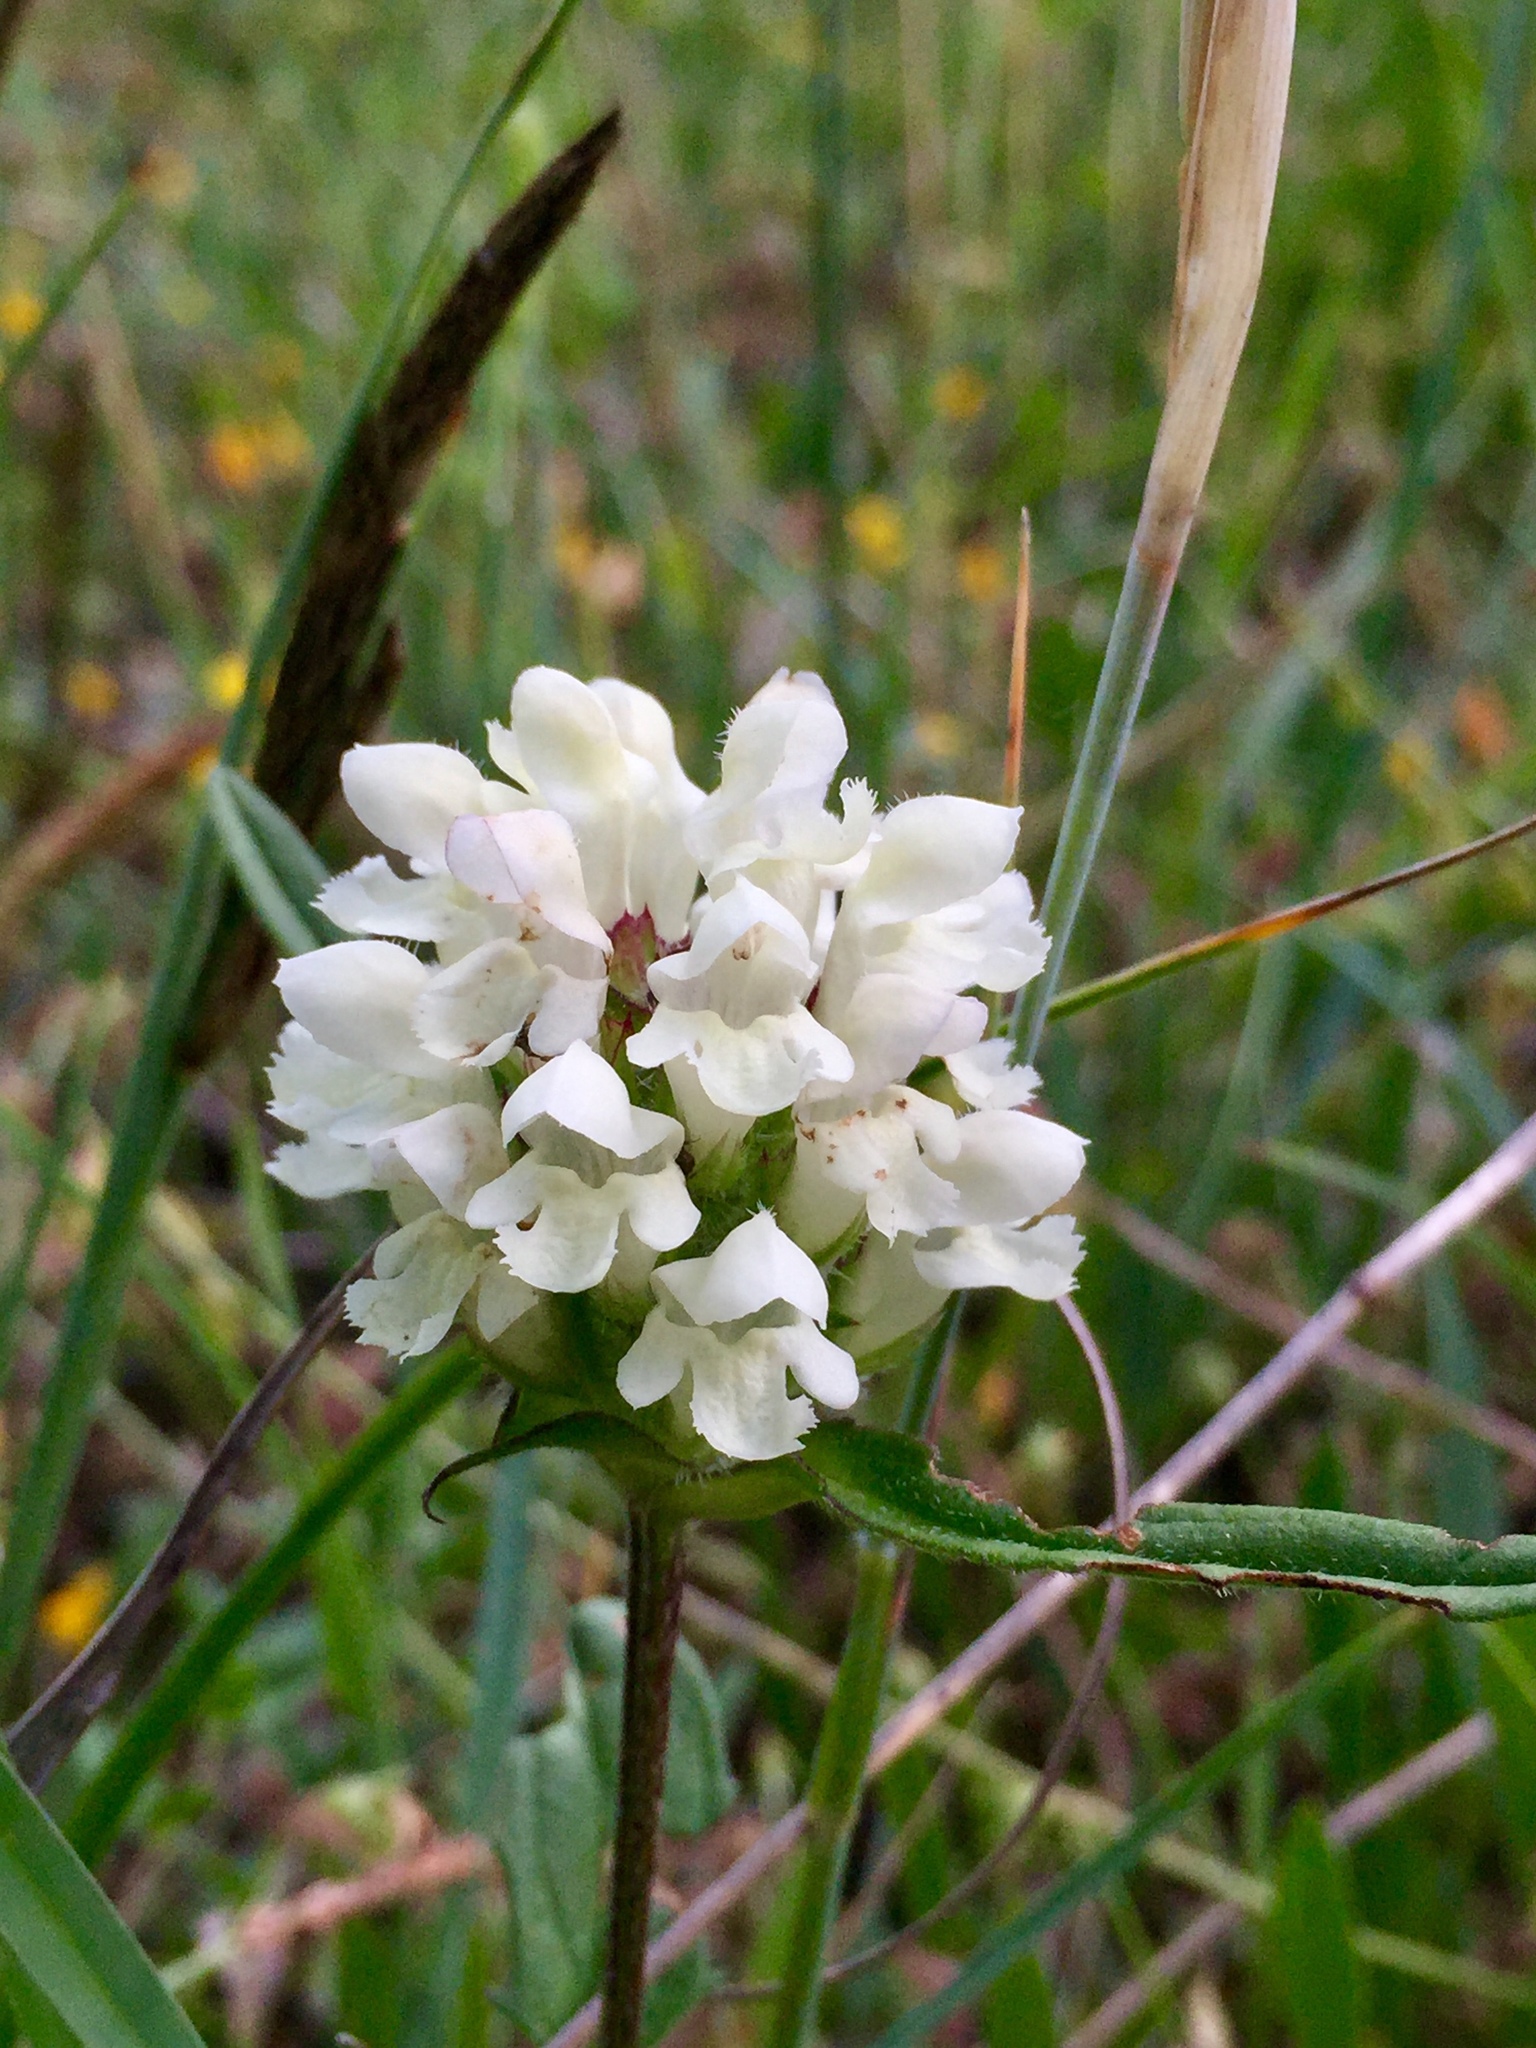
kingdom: Plantae
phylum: Tracheophyta
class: Magnoliopsida
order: Lamiales
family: Lamiaceae
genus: Prunella
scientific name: Prunella laciniata
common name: Cut-leaved selfheal
